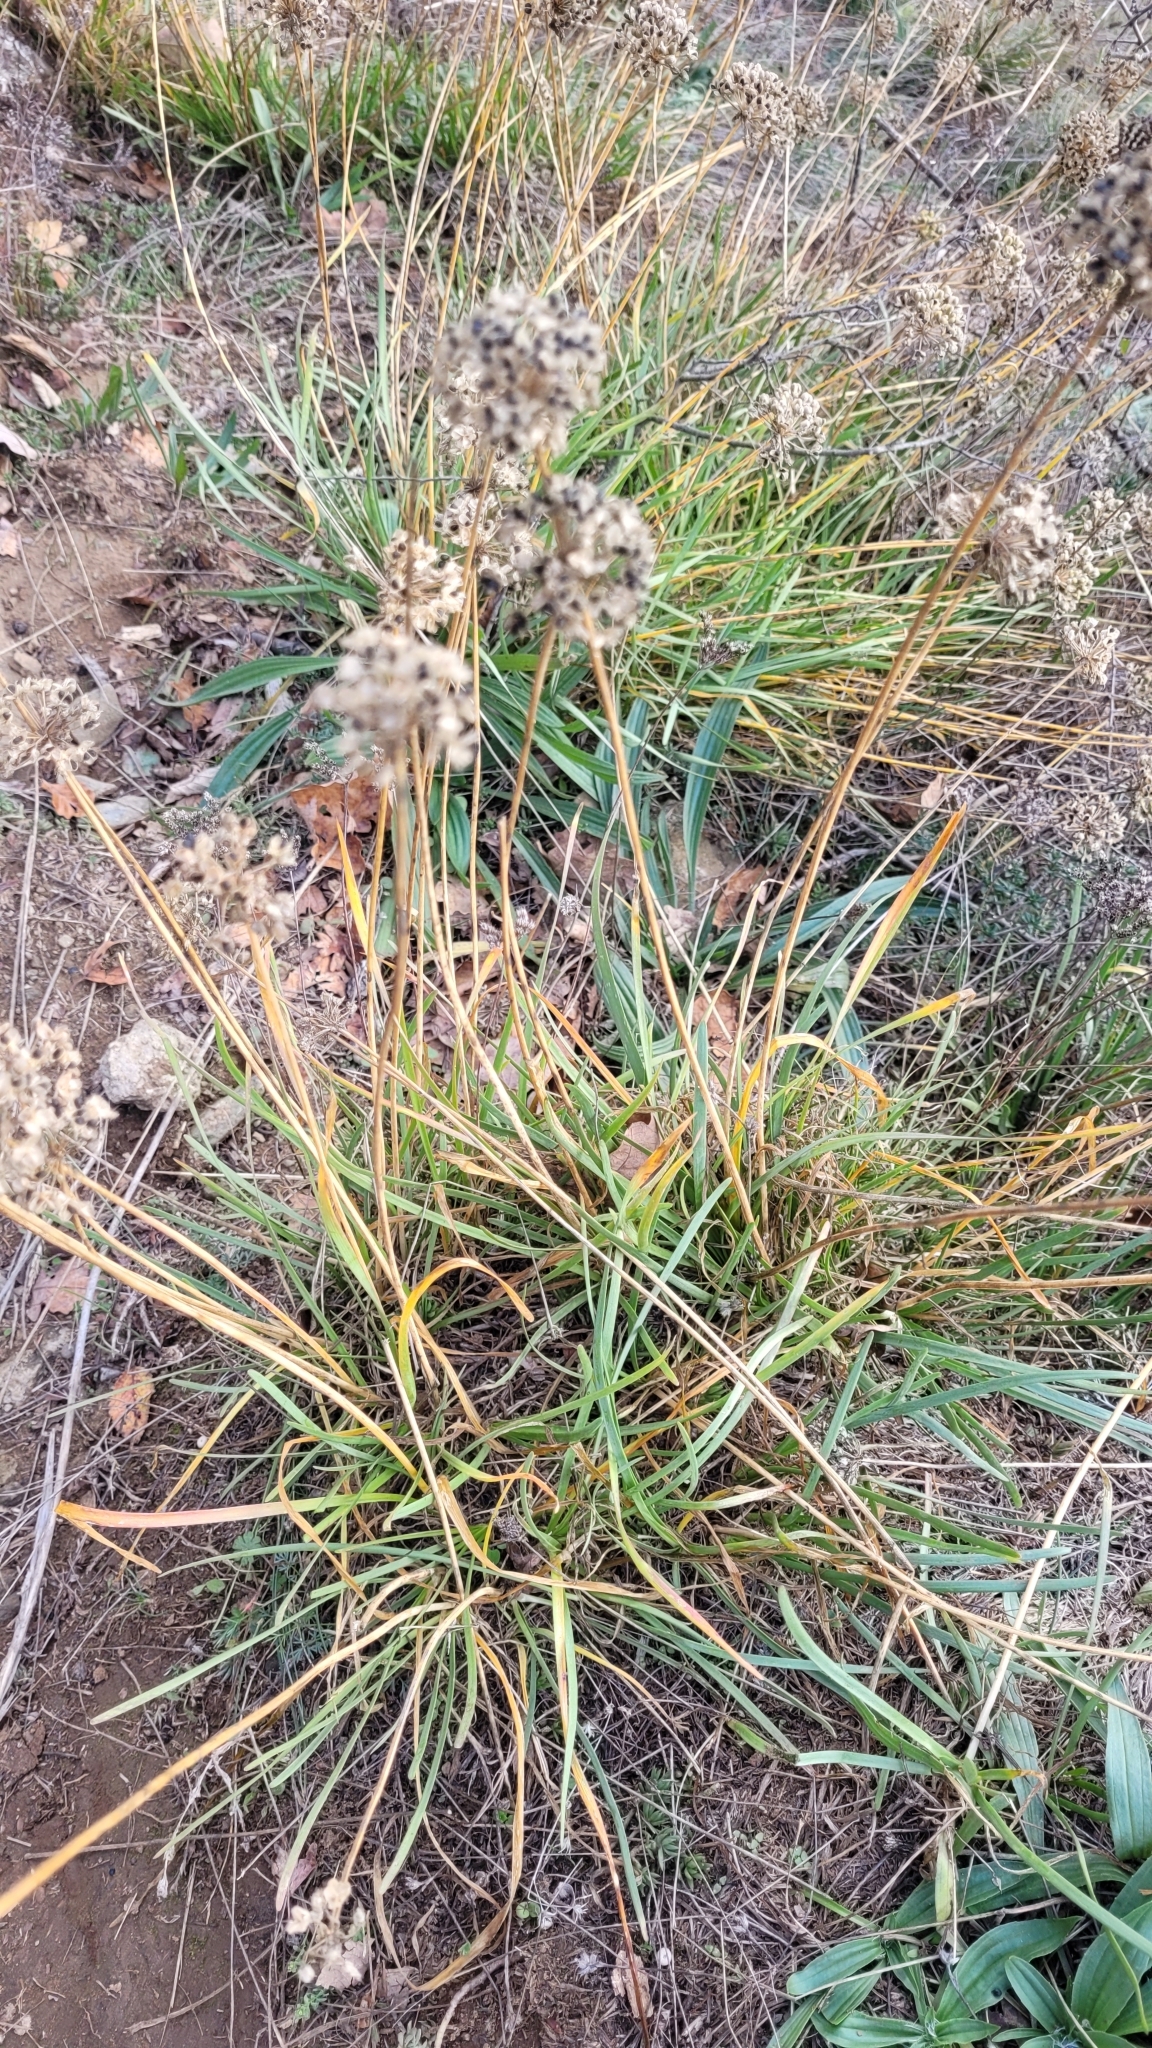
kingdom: Plantae
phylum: Tracheophyta
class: Liliopsida
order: Asparagales
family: Amaryllidaceae
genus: Allium
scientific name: Allium lusitanicum
